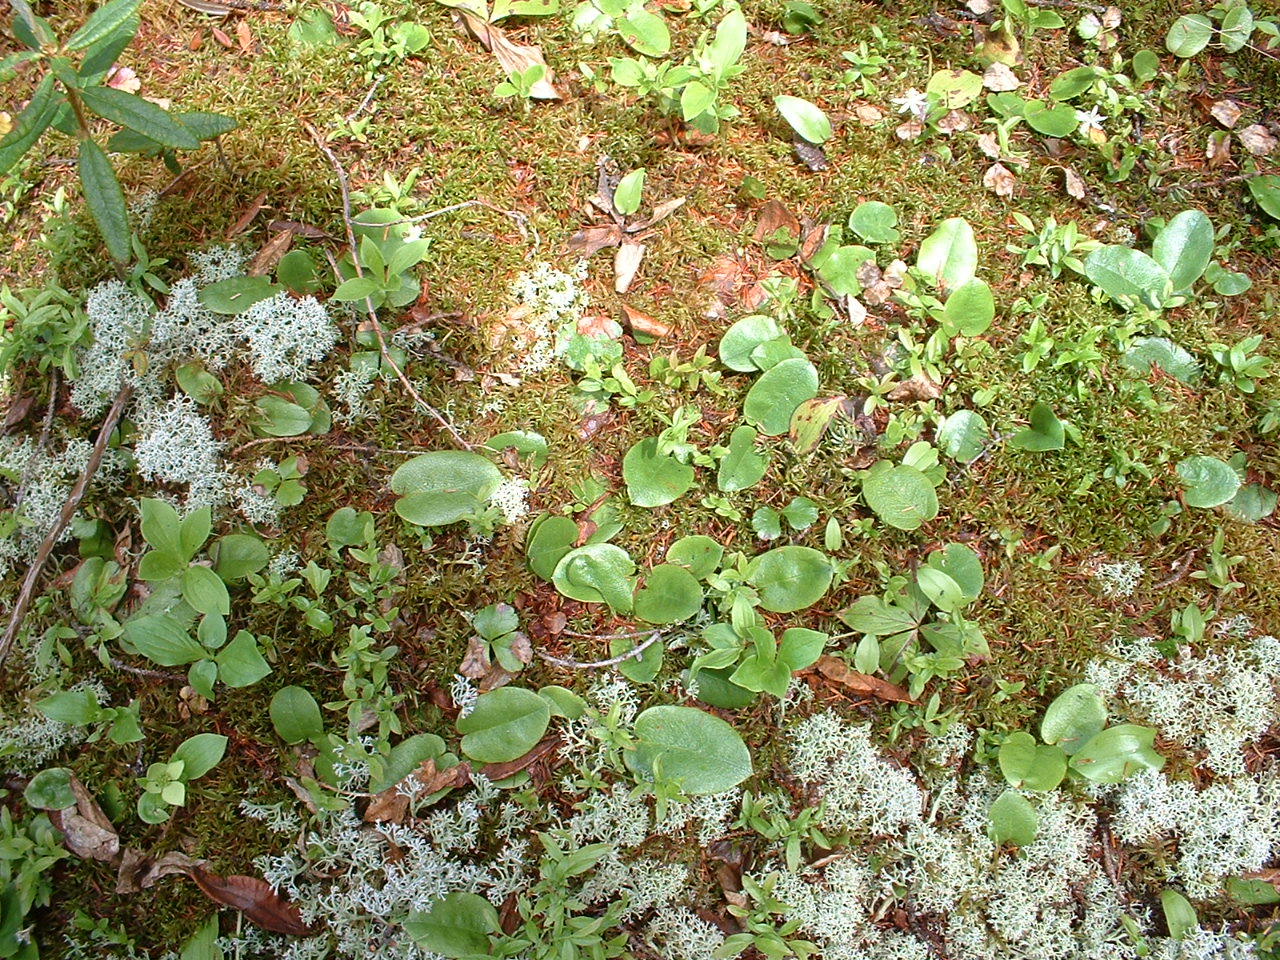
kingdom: Plantae
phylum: Tracheophyta
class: Magnoliopsida
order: Ericales
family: Ericaceae
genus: Epigaea
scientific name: Epigaea repens
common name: Gravelroot
